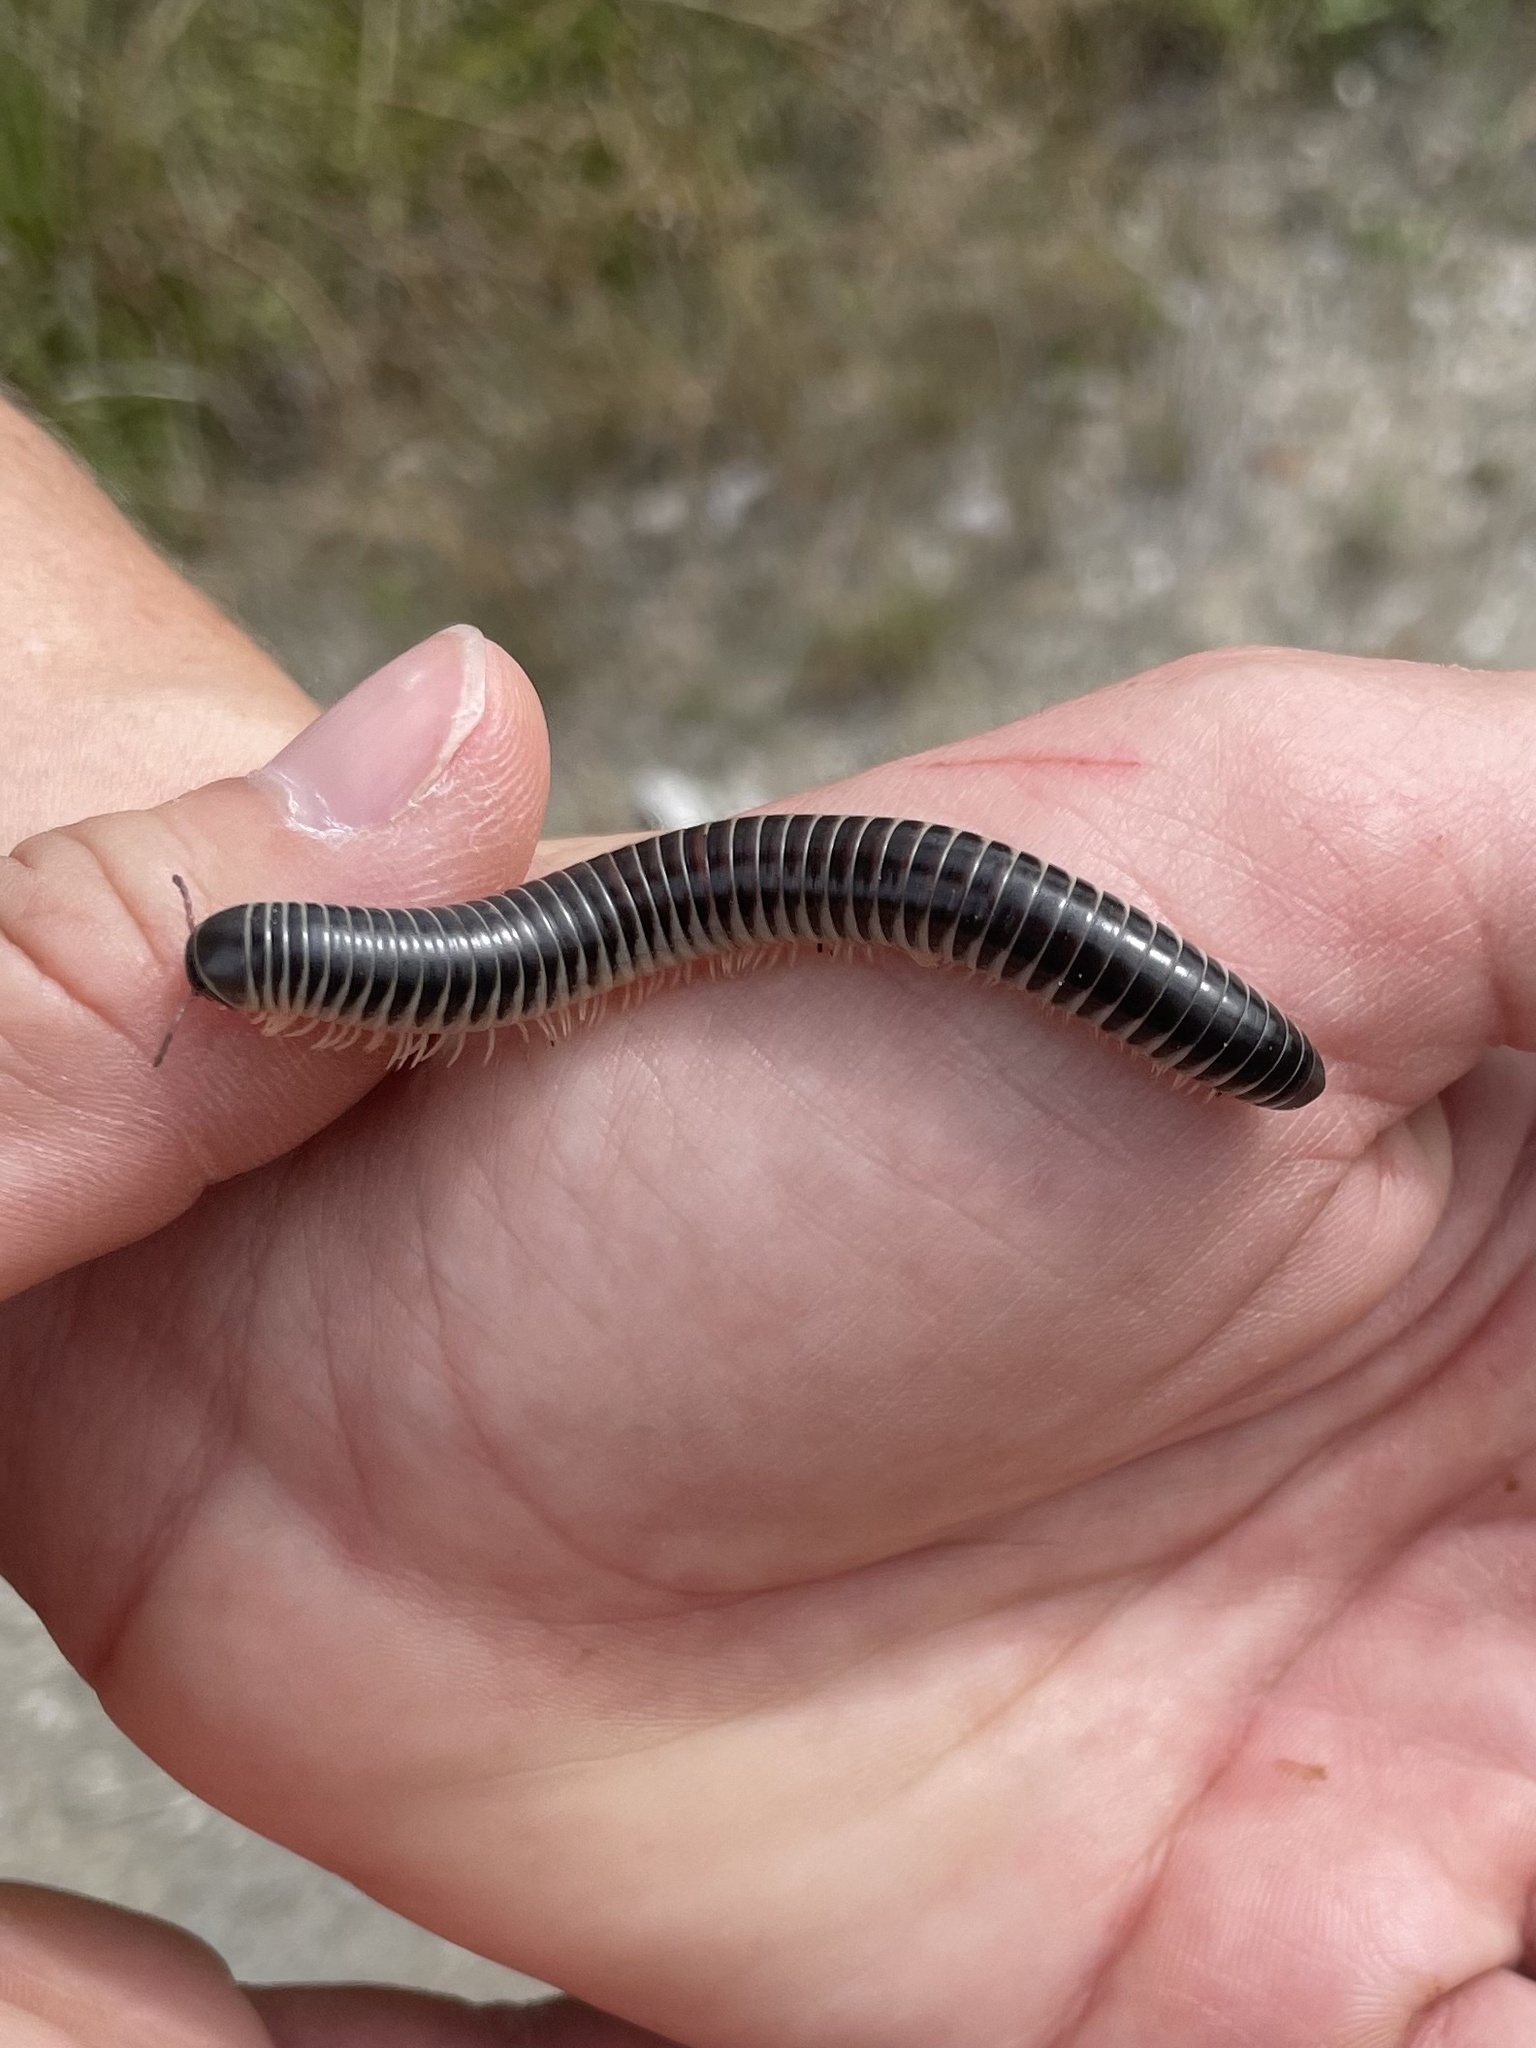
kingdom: Animalia
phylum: Arthropoda
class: Diplopoda
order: Spirobolida
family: Spirobolidae
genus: Chicobolus
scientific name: Chicobolus spinigerus
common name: Florida ivory millipede
